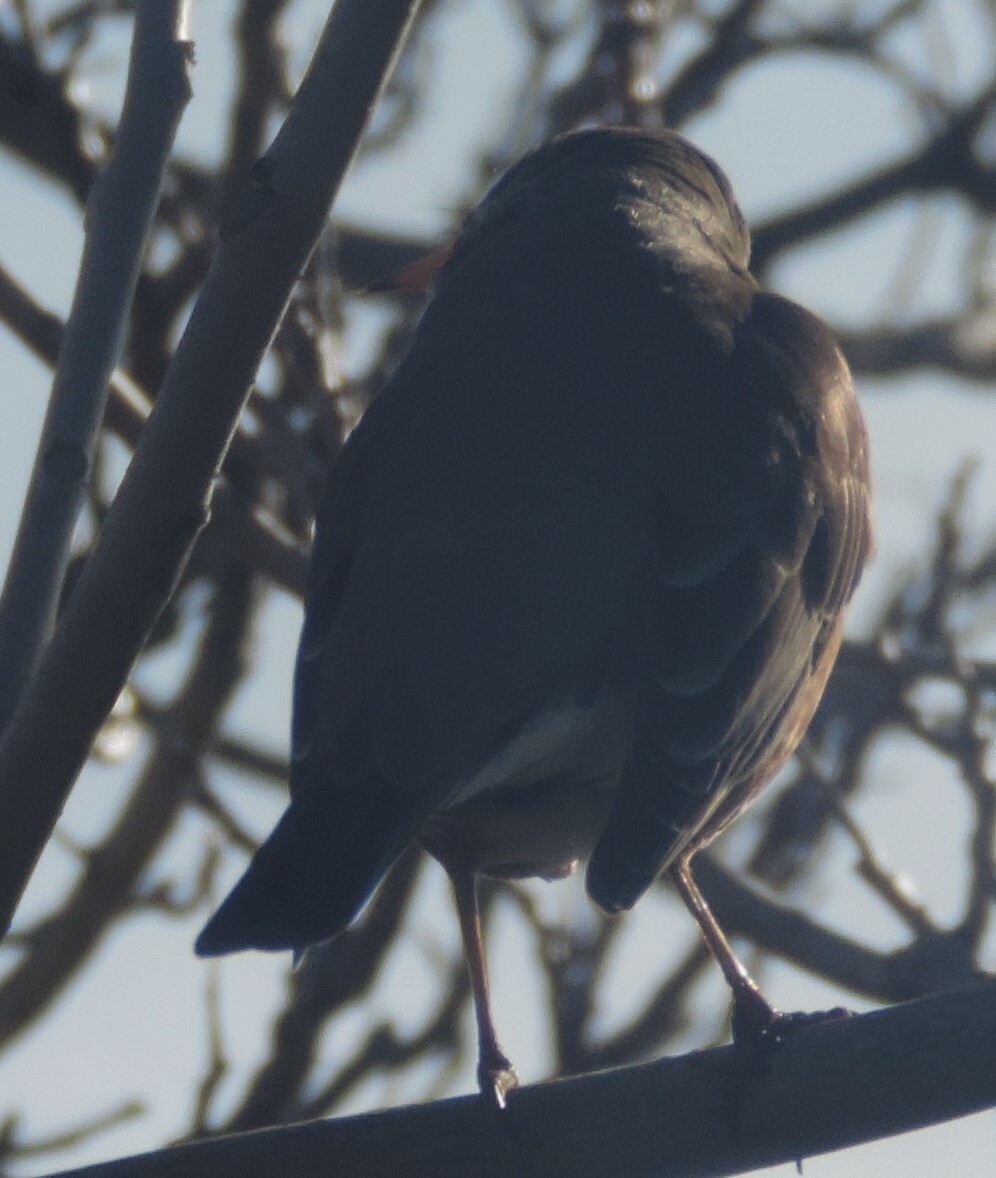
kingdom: Animalia
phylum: Chordata
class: Aves
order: Passeriformes
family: Turdidae
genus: Turdus
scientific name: Turdus migratorius
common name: American robin
